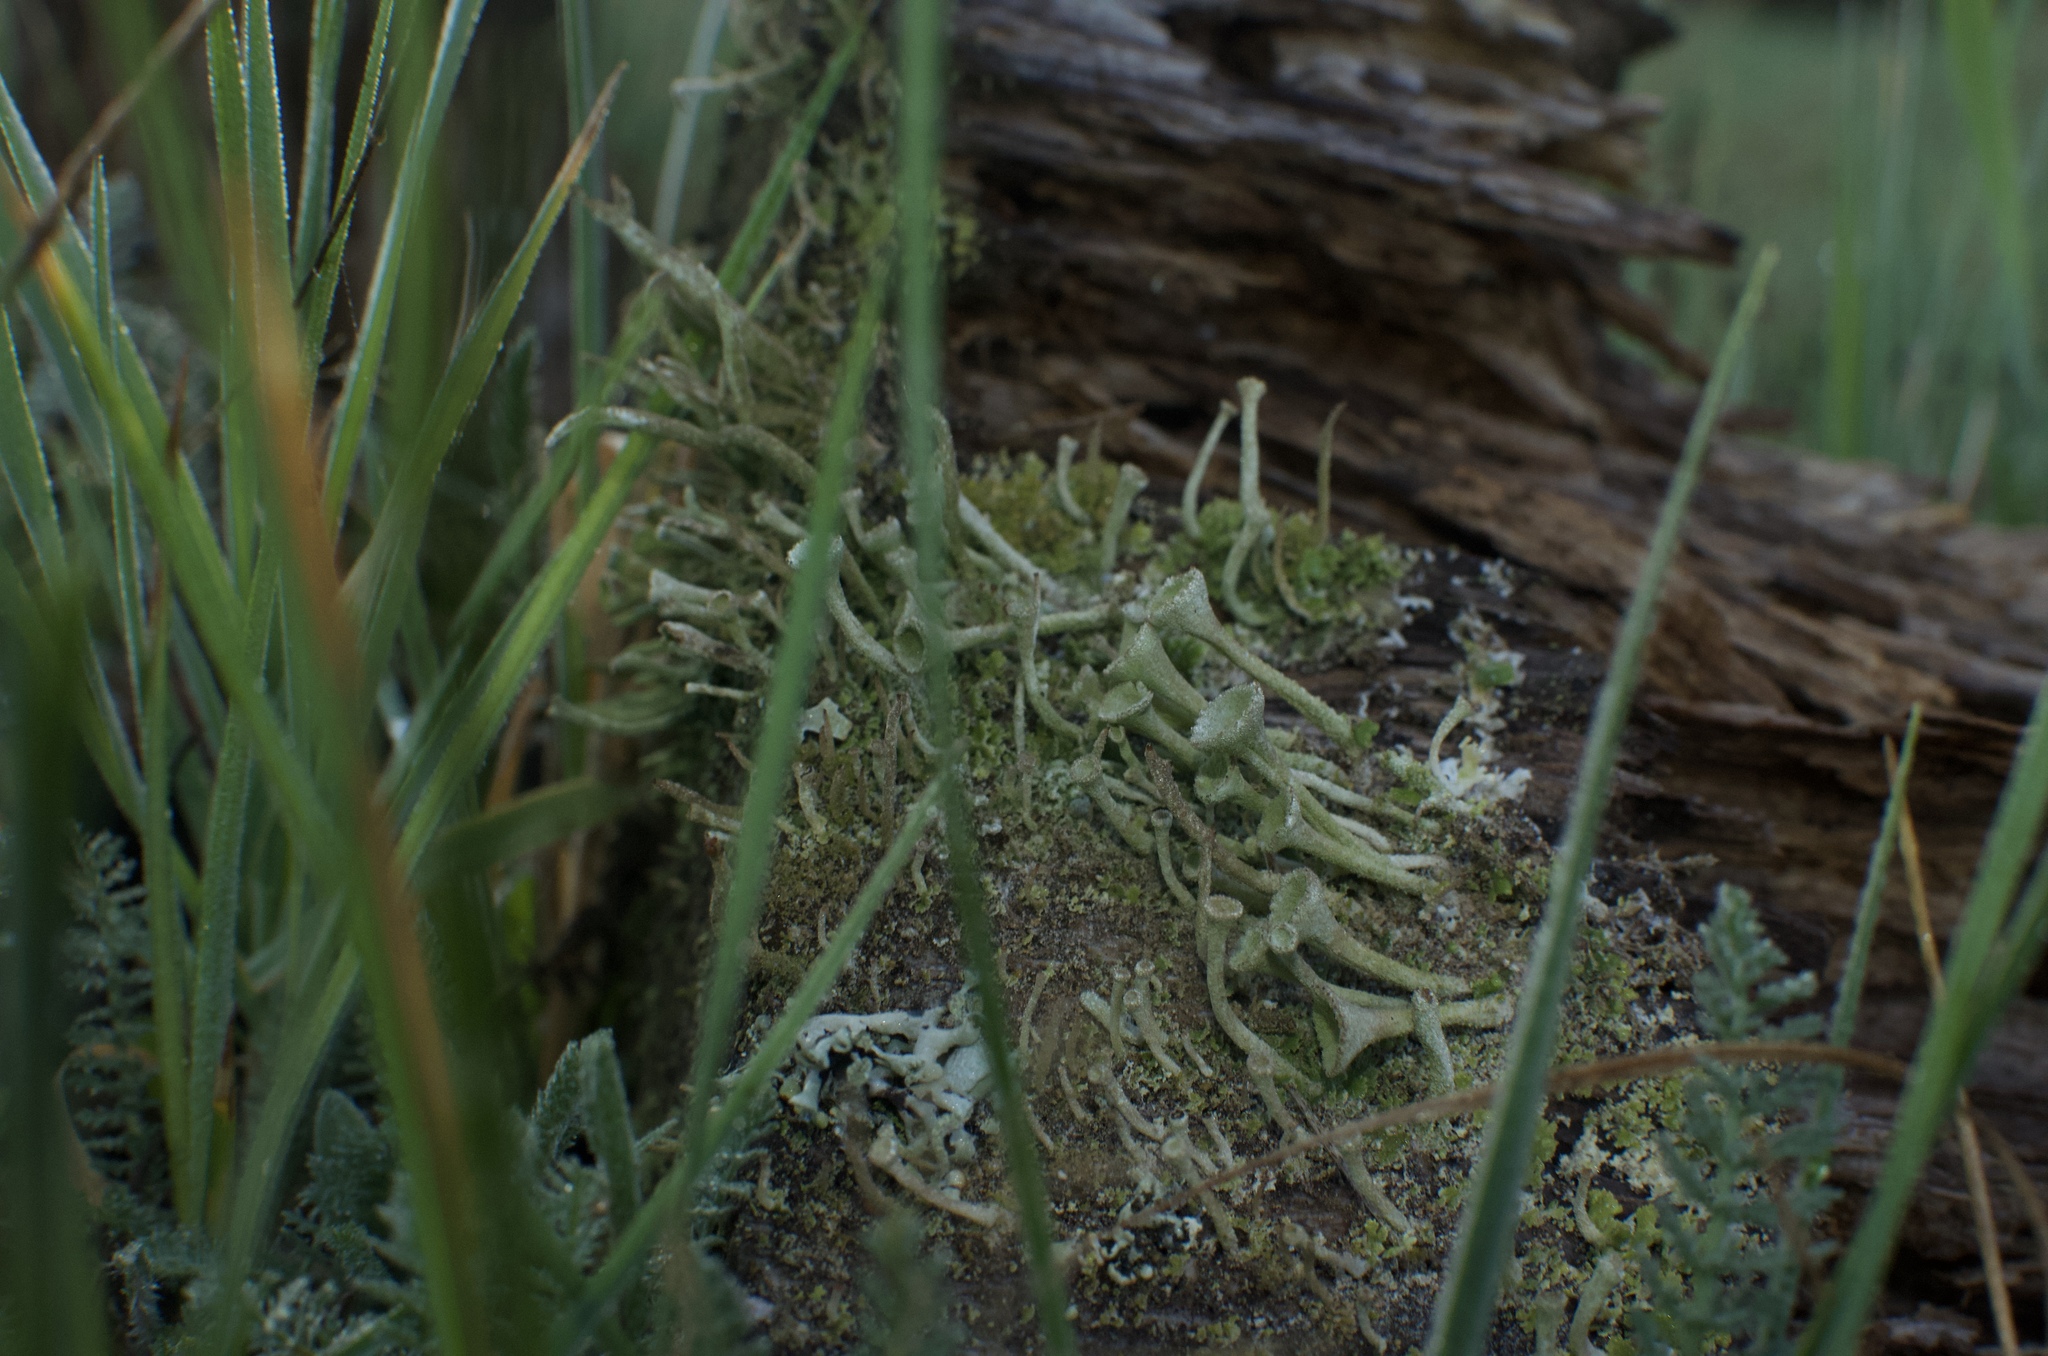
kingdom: Fungi
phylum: Ascomycota
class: Lecanoromycetes
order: Lecanorales
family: Cladoniaceae
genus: Cladonia
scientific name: Cladonia fimbriata
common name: Powdered trumpet lichen
